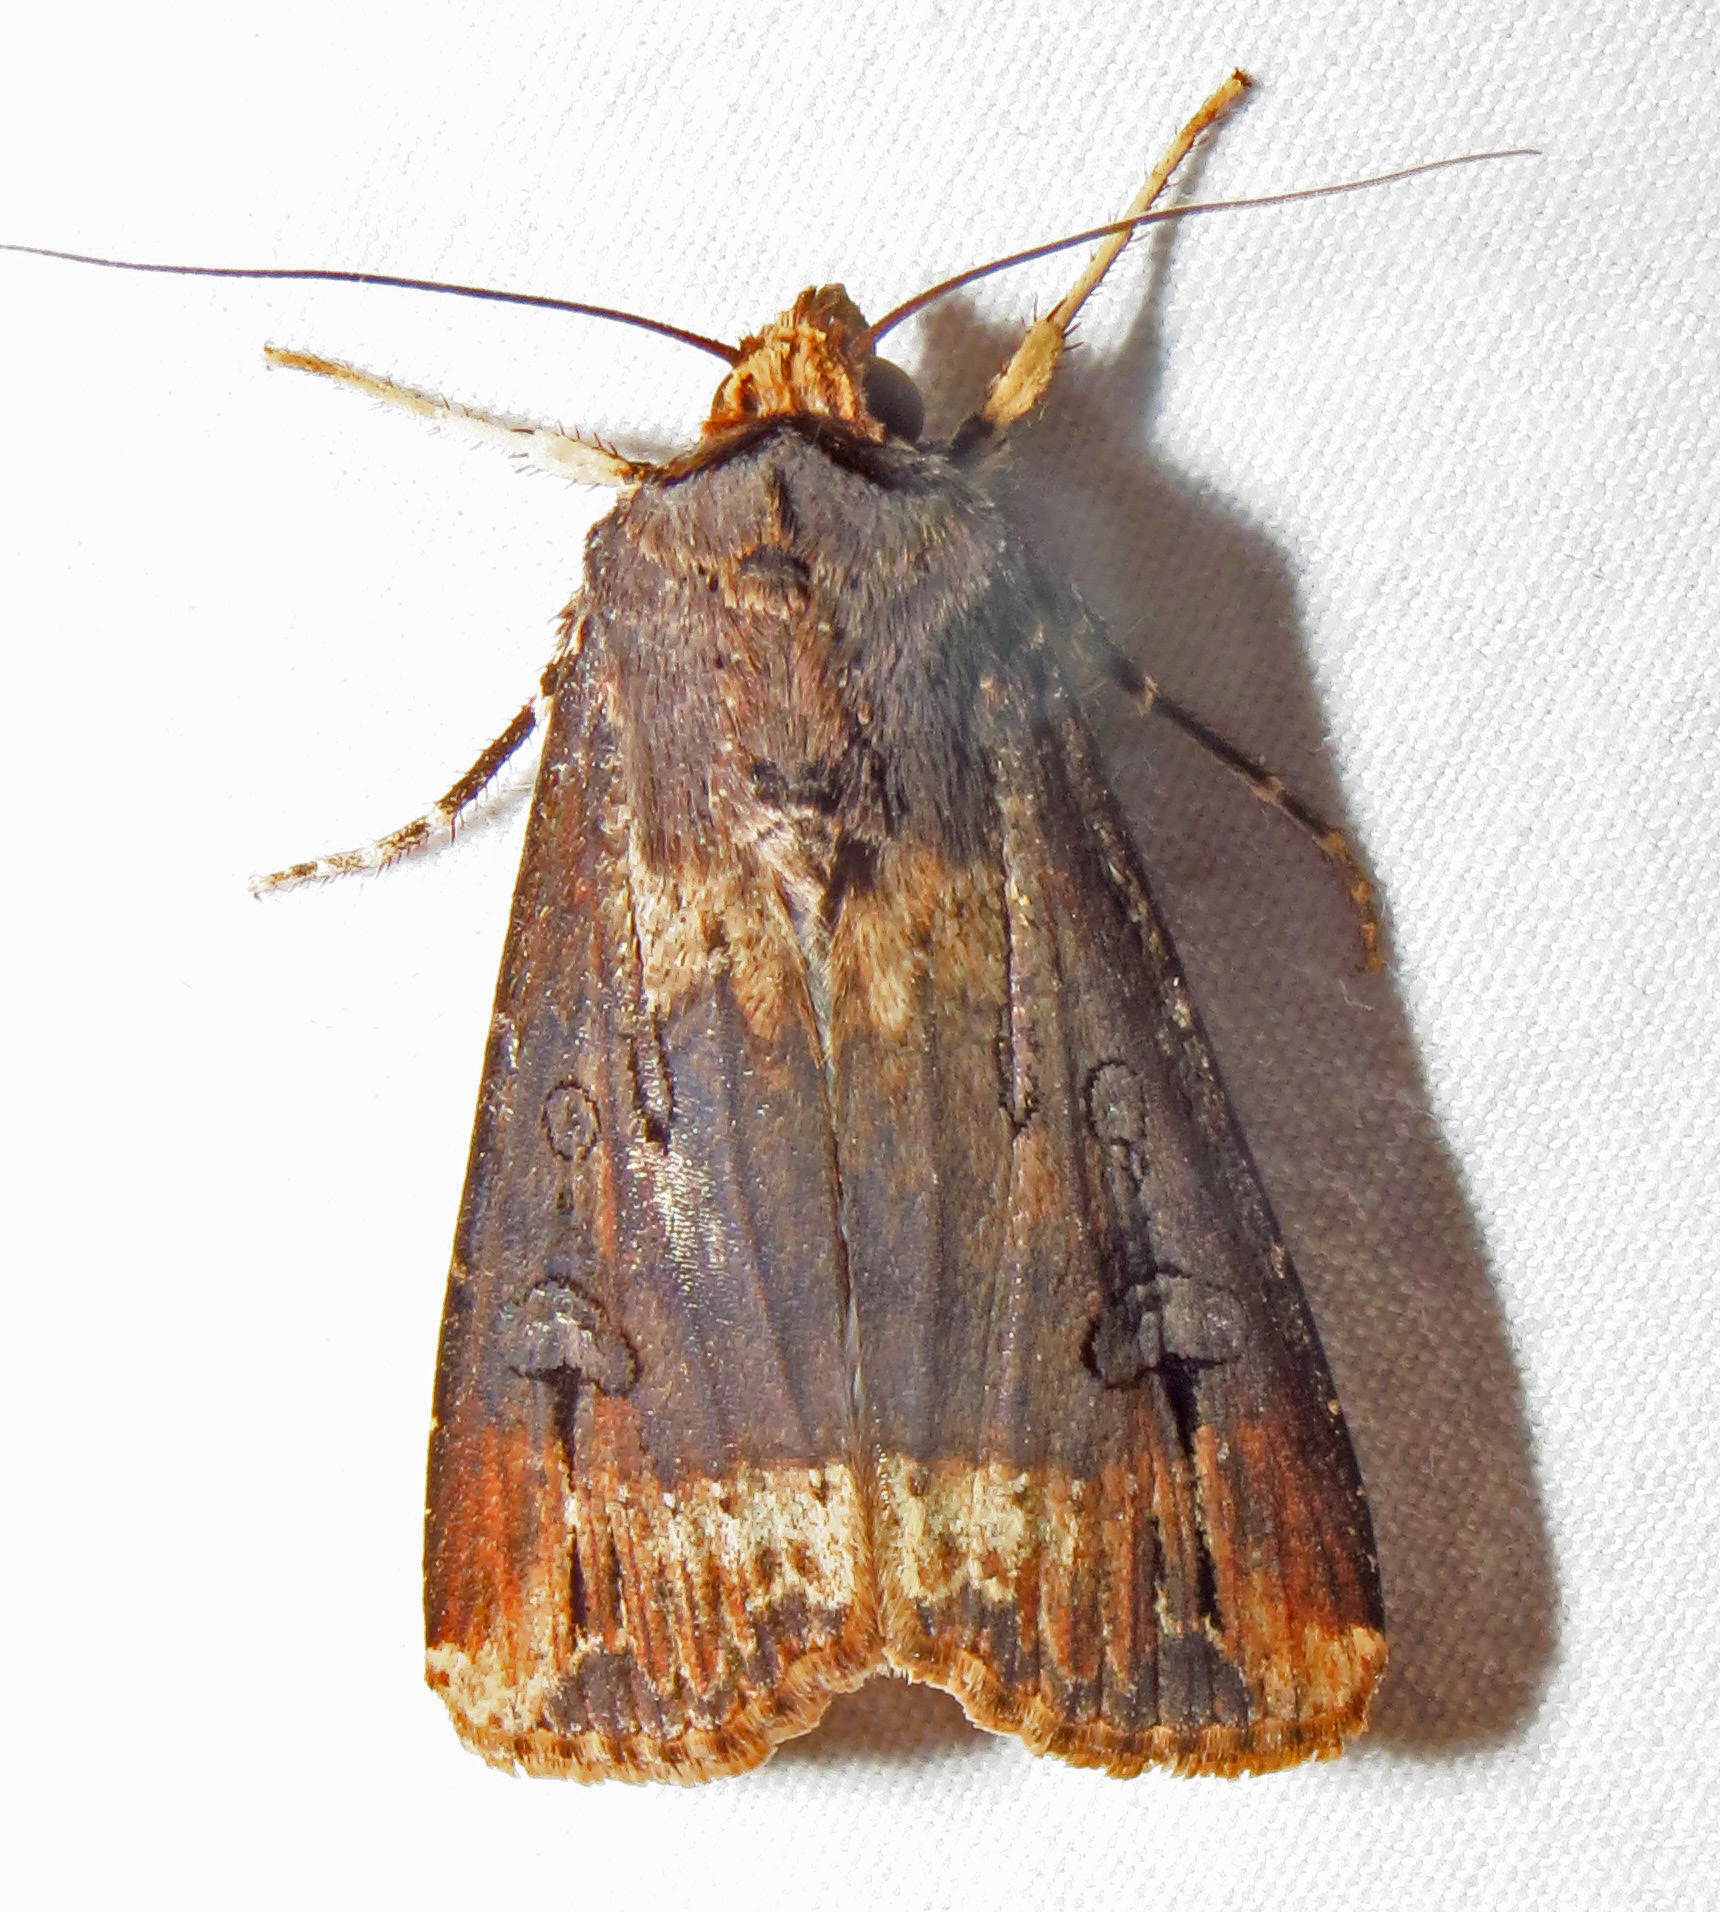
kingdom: Animalia
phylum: Arthropoda
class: Insecta
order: Lepidoptera
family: Noctuidae
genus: Agrotis
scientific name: Agrotis ipsilon
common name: Dark sword-grass
